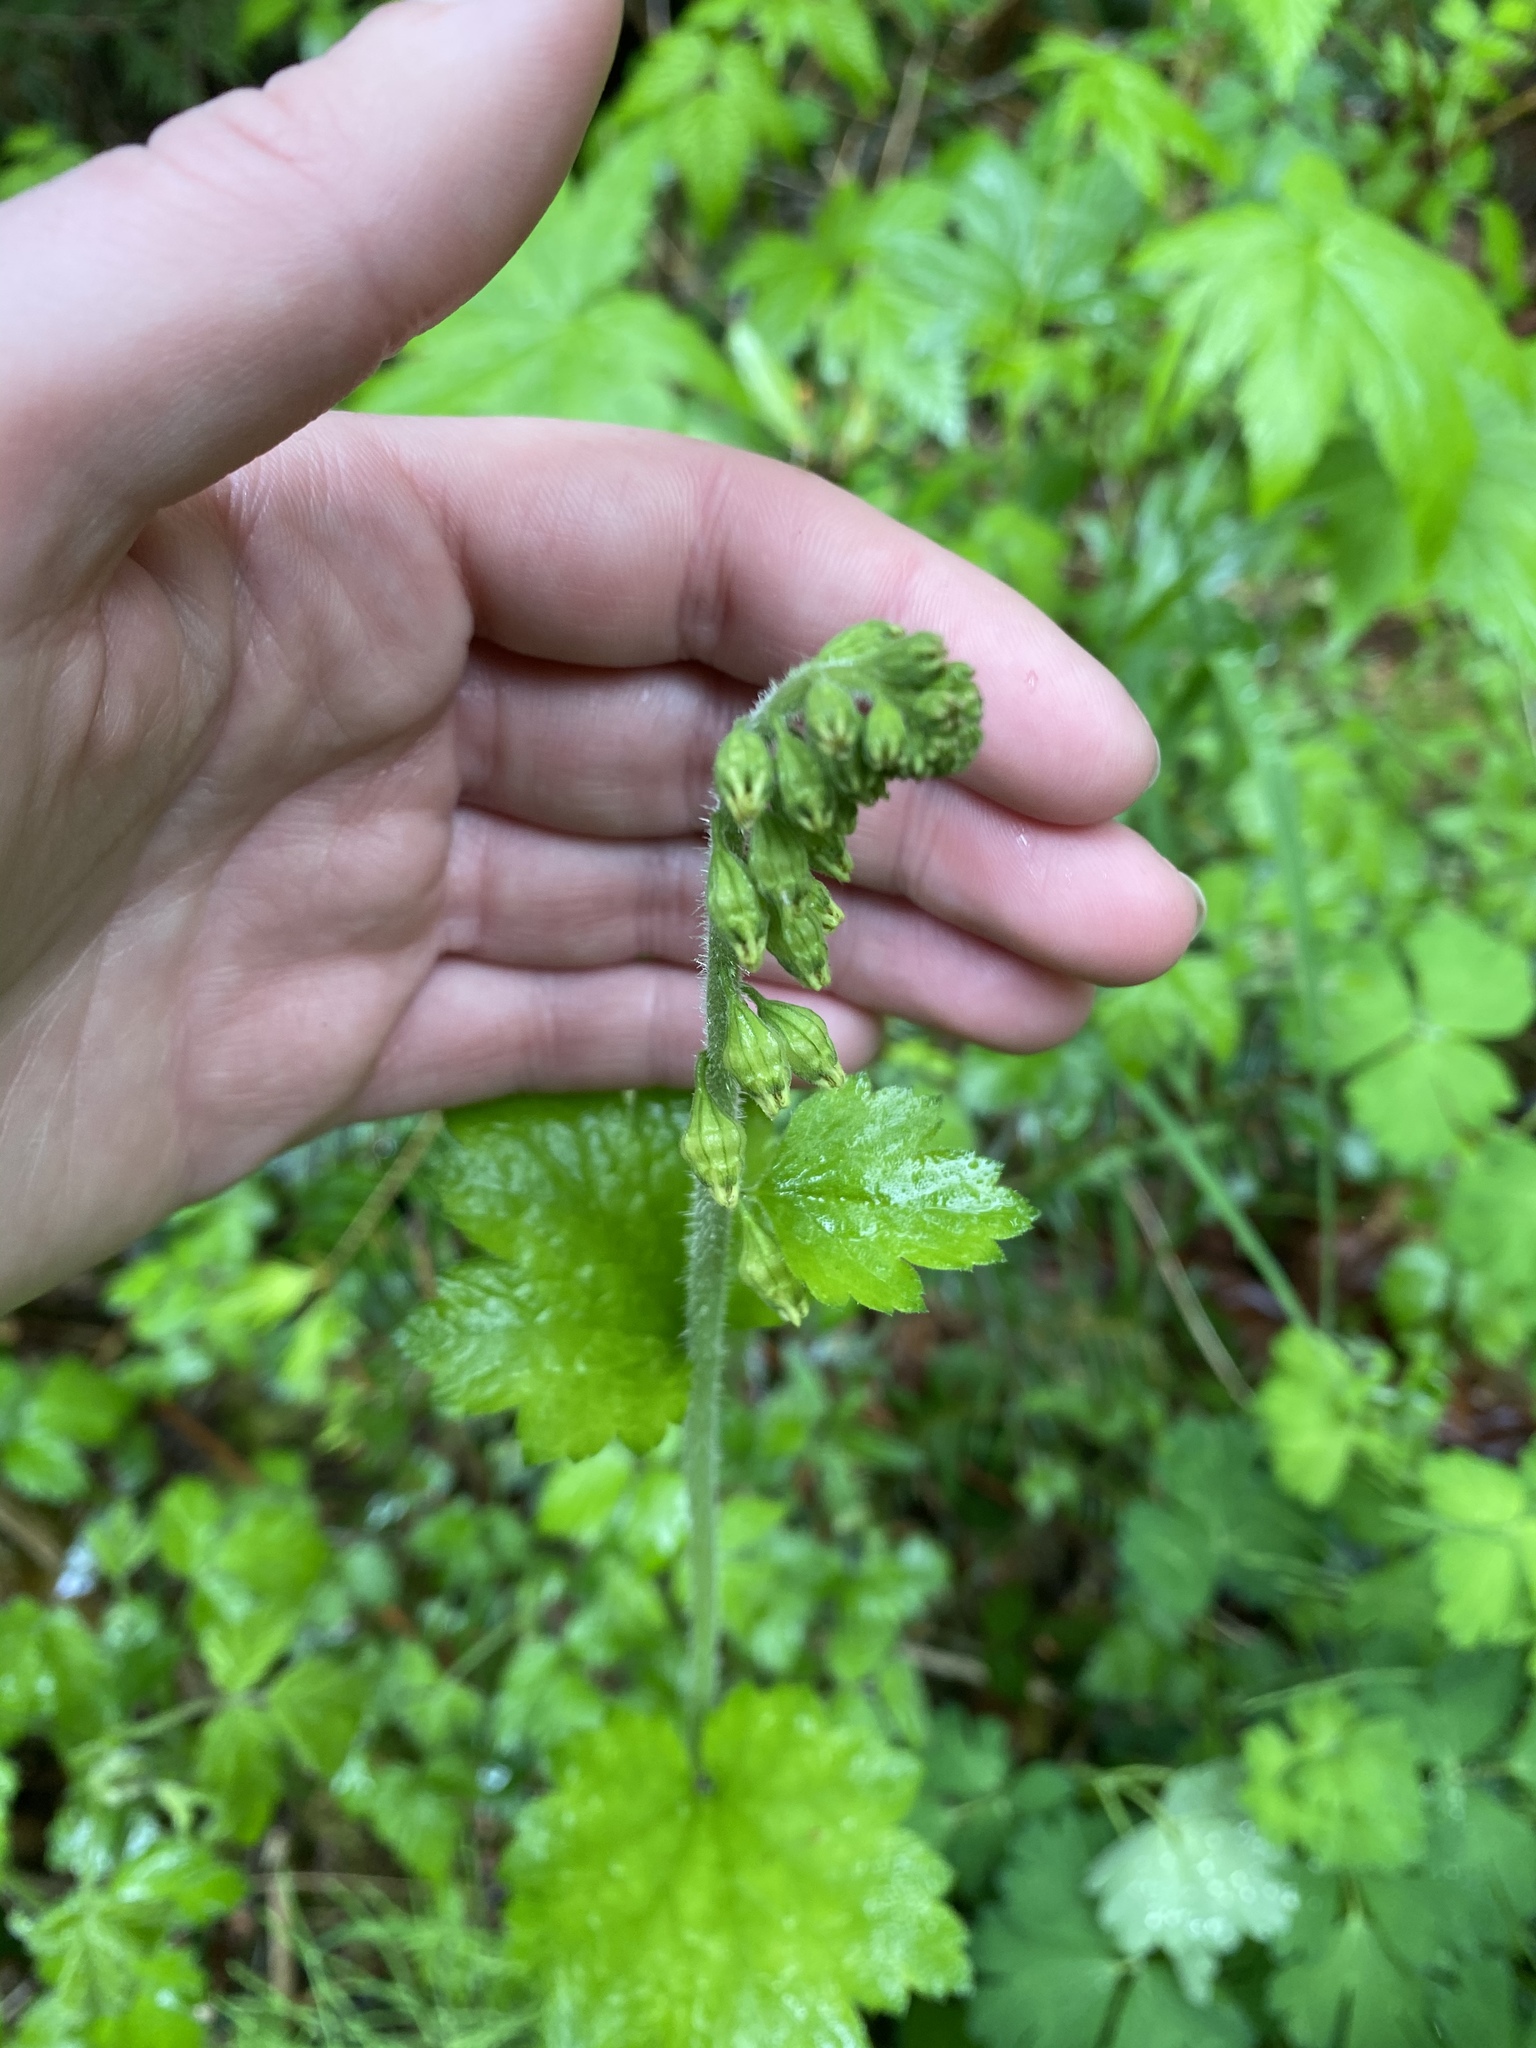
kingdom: Plantae
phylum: Tracheophyta
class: Magnoliopsida
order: Saxifragales
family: Saxifragaceae
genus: Tellima
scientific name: Tellima grandiflora
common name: Fringecups
